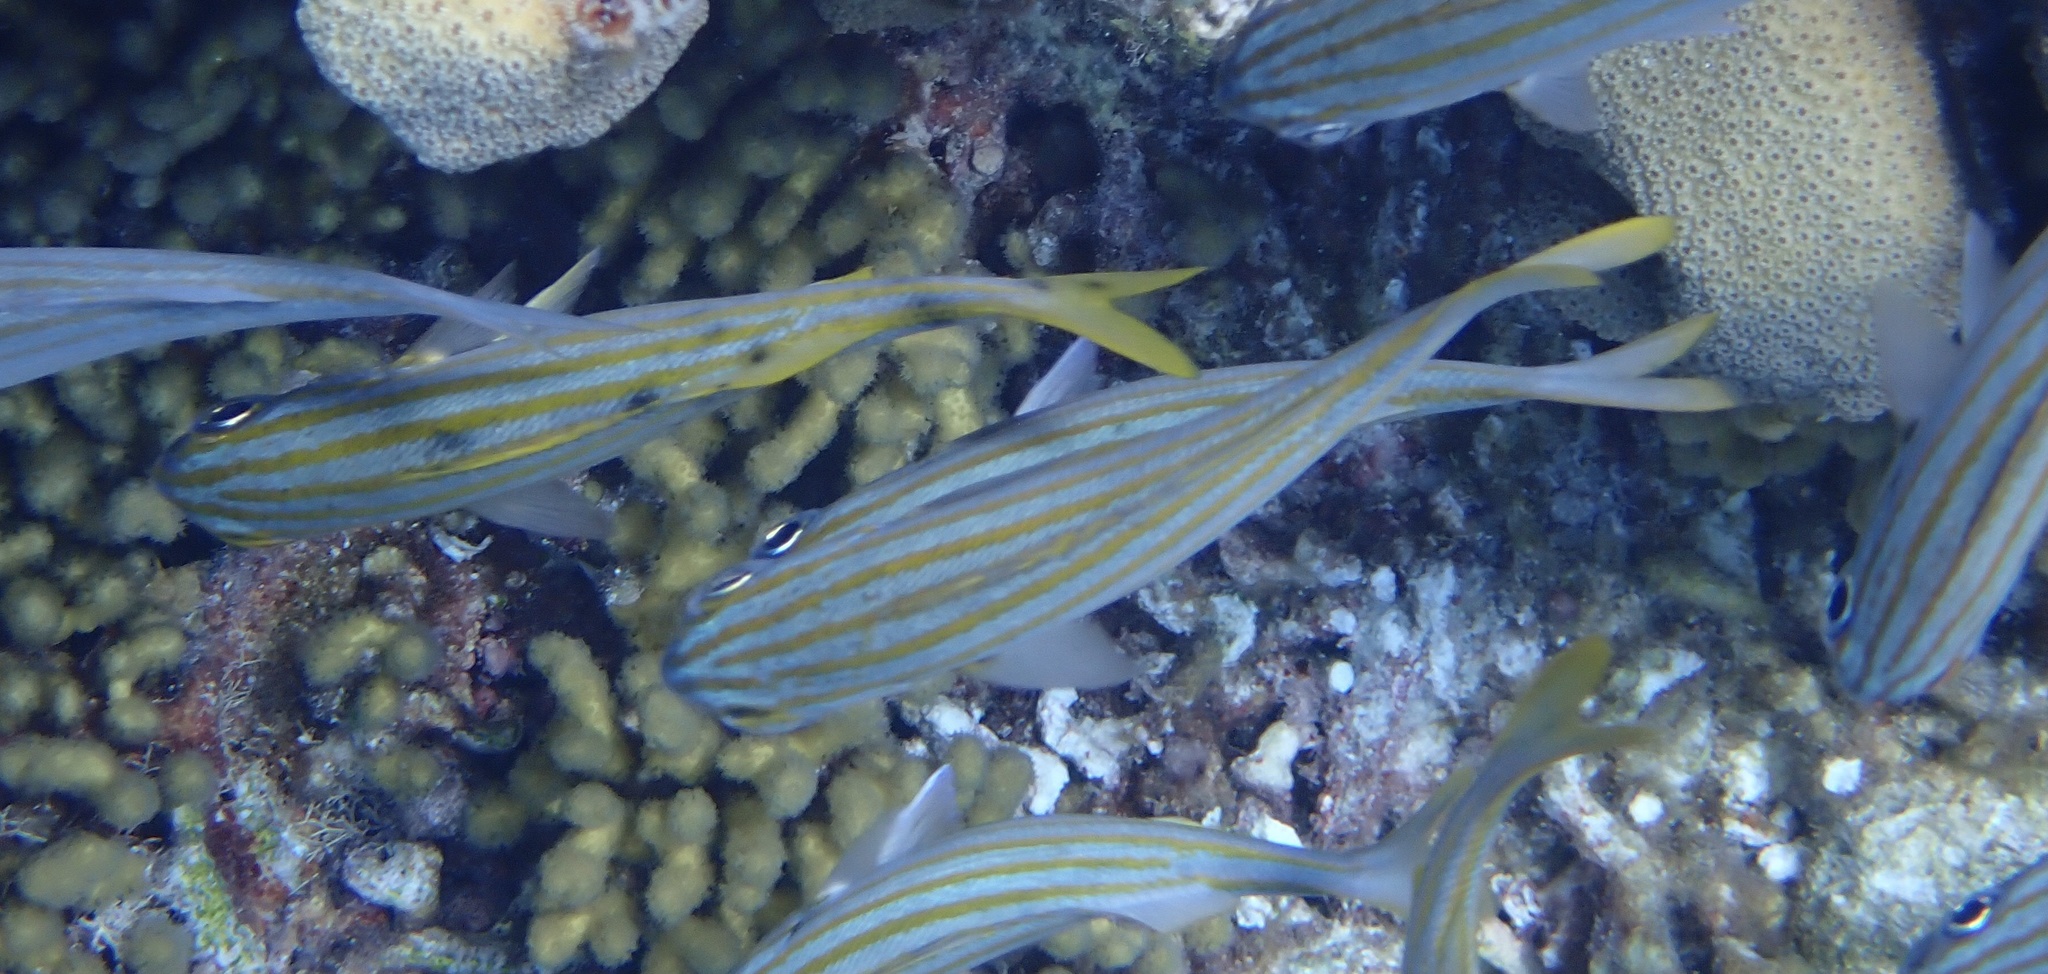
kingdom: Animalia
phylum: Chordata
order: Perciformes
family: Haemulidae
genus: Haemulon
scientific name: Haemulon chrysargyreum
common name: Smallmouth grunt
